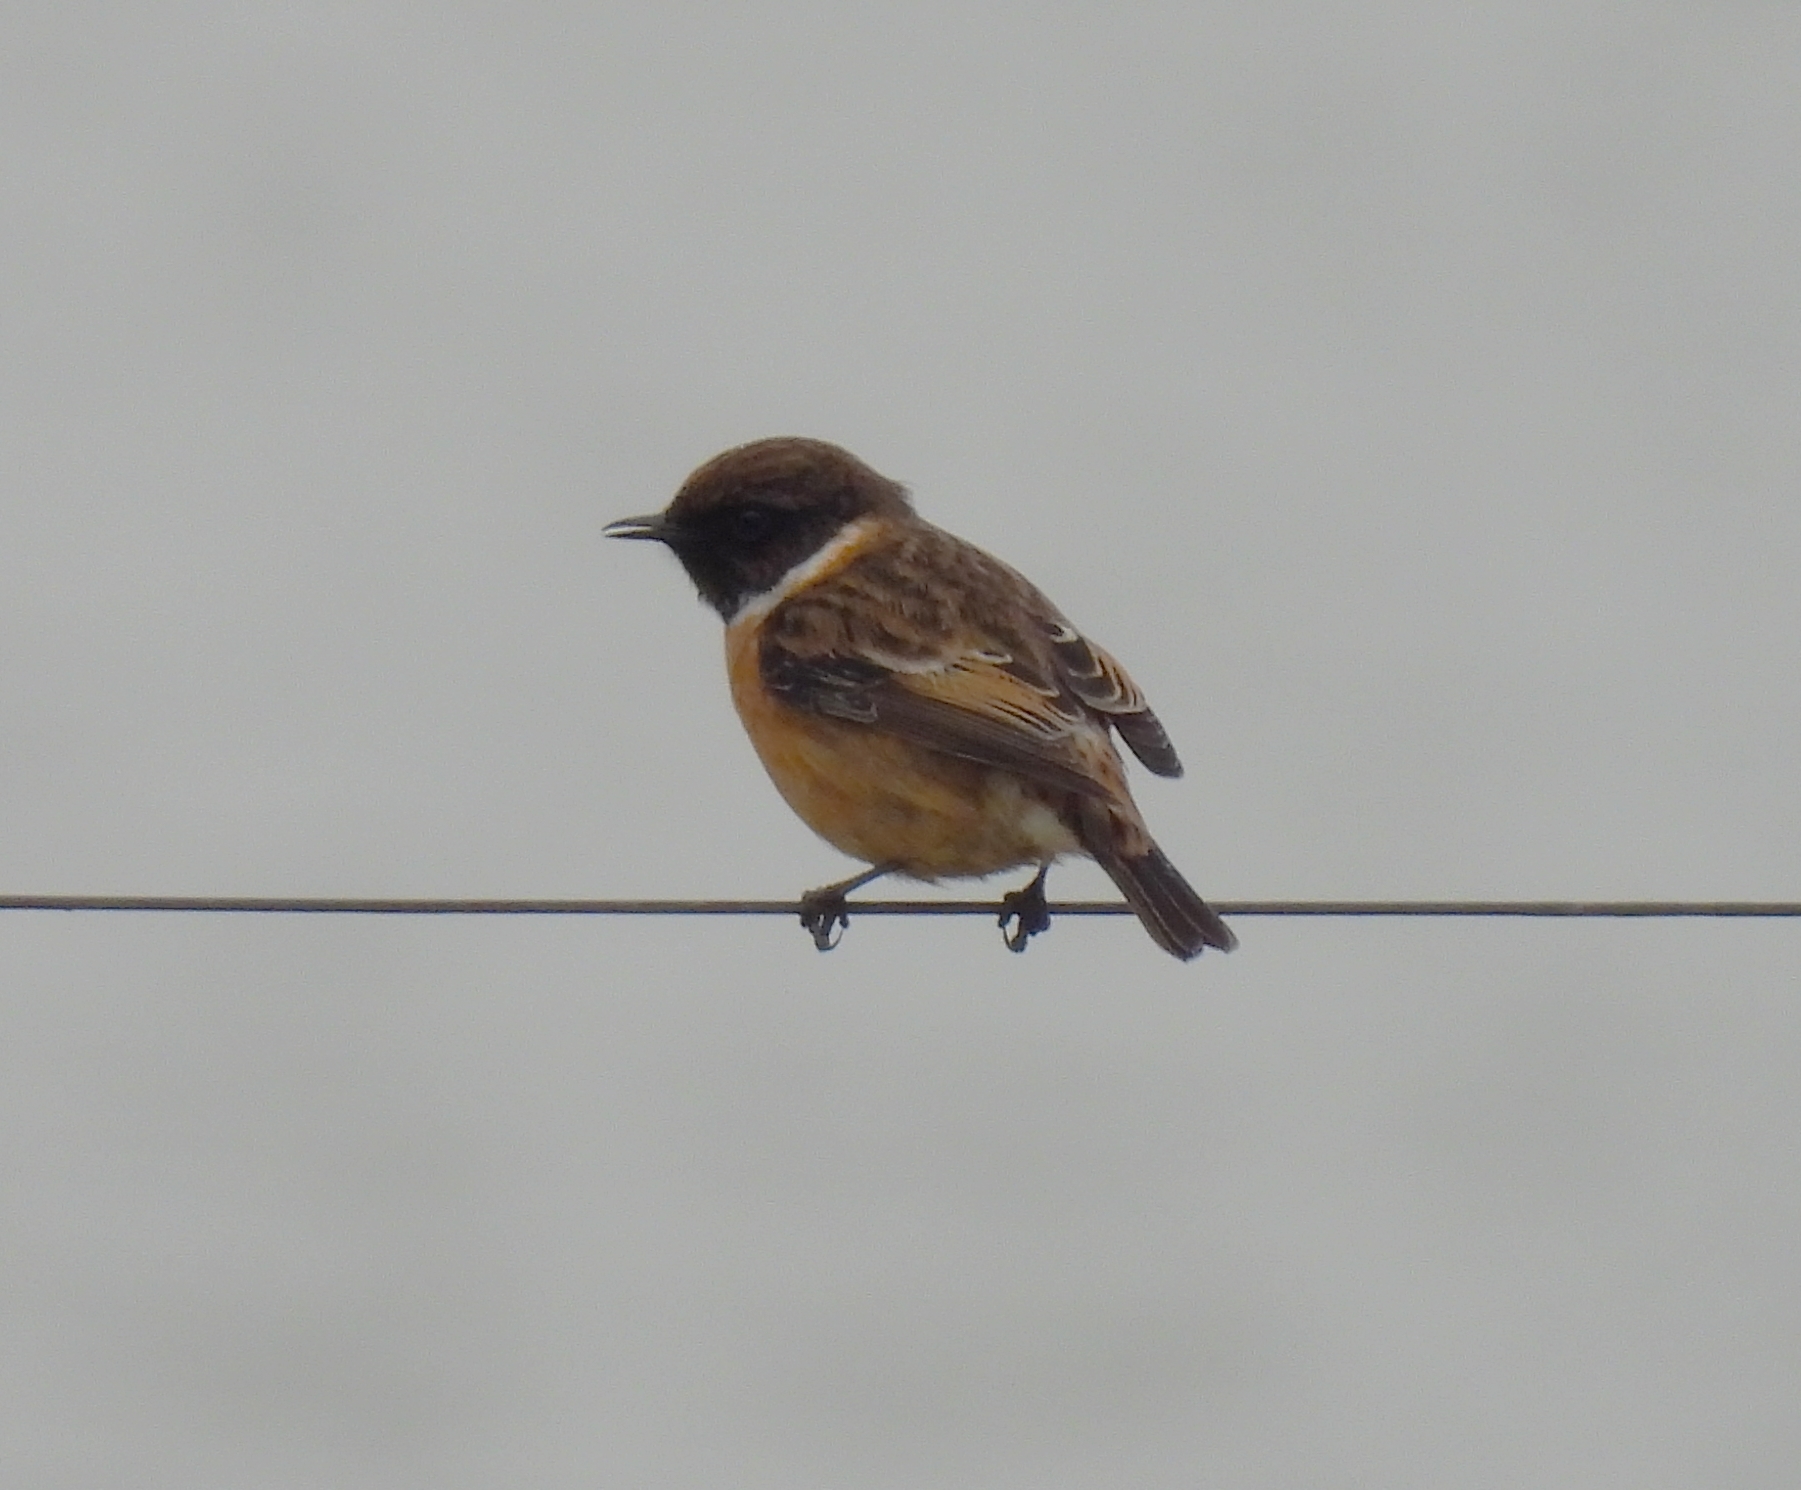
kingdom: Animalia
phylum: Chordata
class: Aves
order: Passeriformes
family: Muscicapidae
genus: Saxicola
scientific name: Saxicola rubicola
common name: European stonechat
